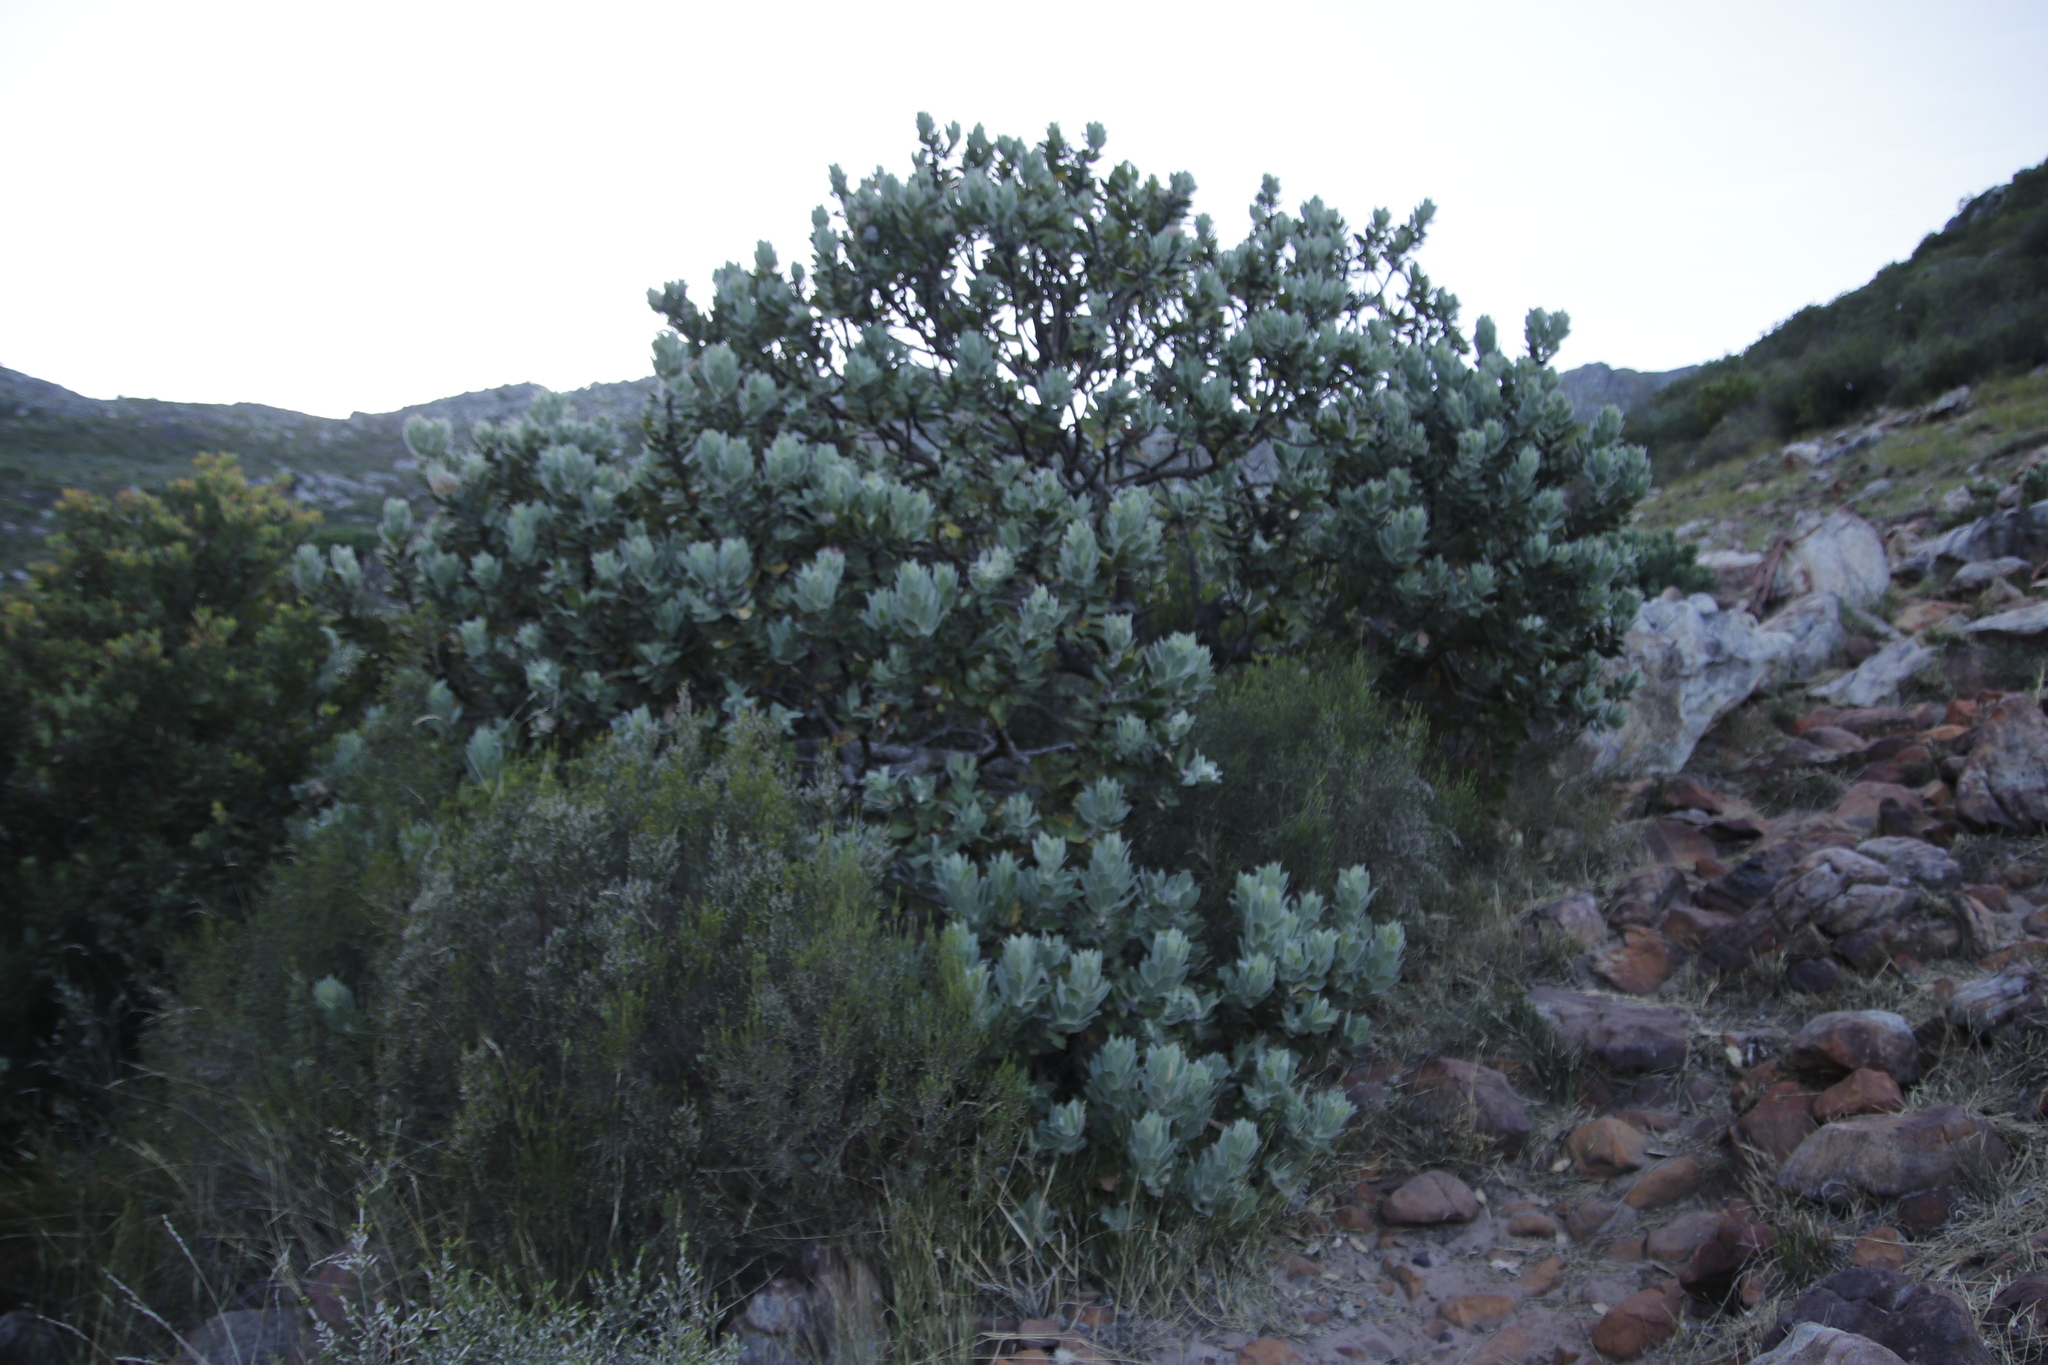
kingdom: Plantae
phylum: Tracheophyta
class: Magnoliopsida
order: Proteales
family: Proteaceae
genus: Leucospermum
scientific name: Leucospermum conocarpodendron
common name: Tree pincushion
